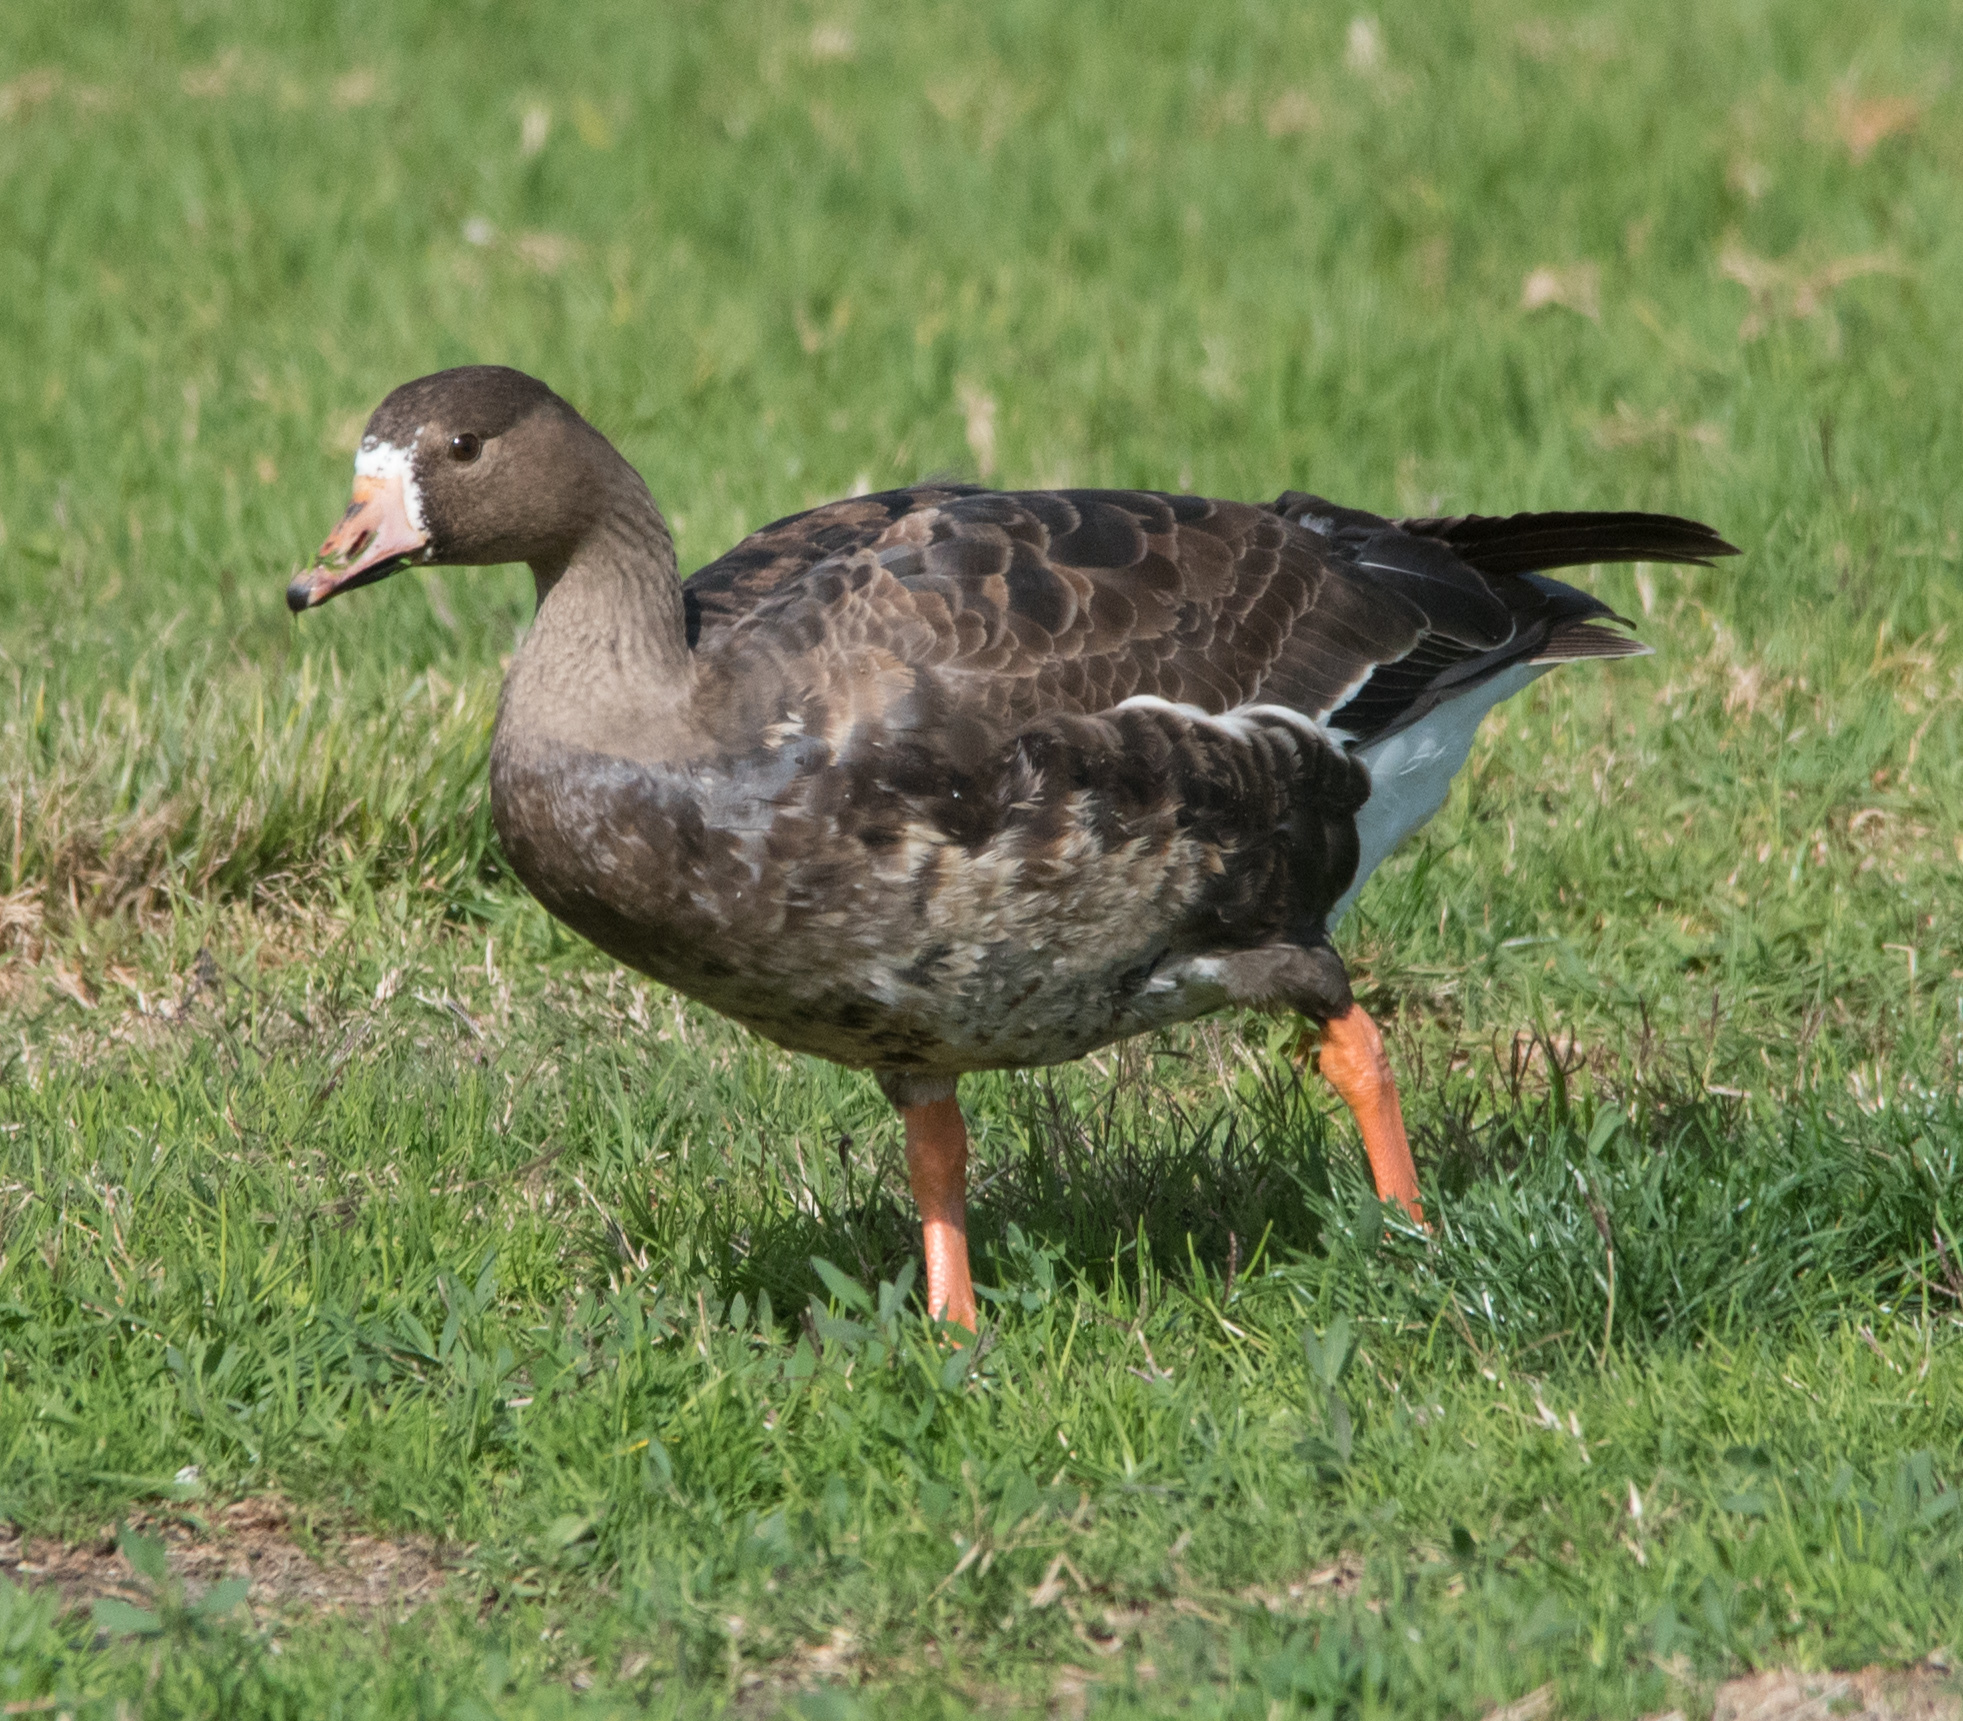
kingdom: Animalia
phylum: Chordata
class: Aves
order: Anseriformes
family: Anatidae
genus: Anser
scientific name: Anser albifrons
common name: Greater white-fronted goose
